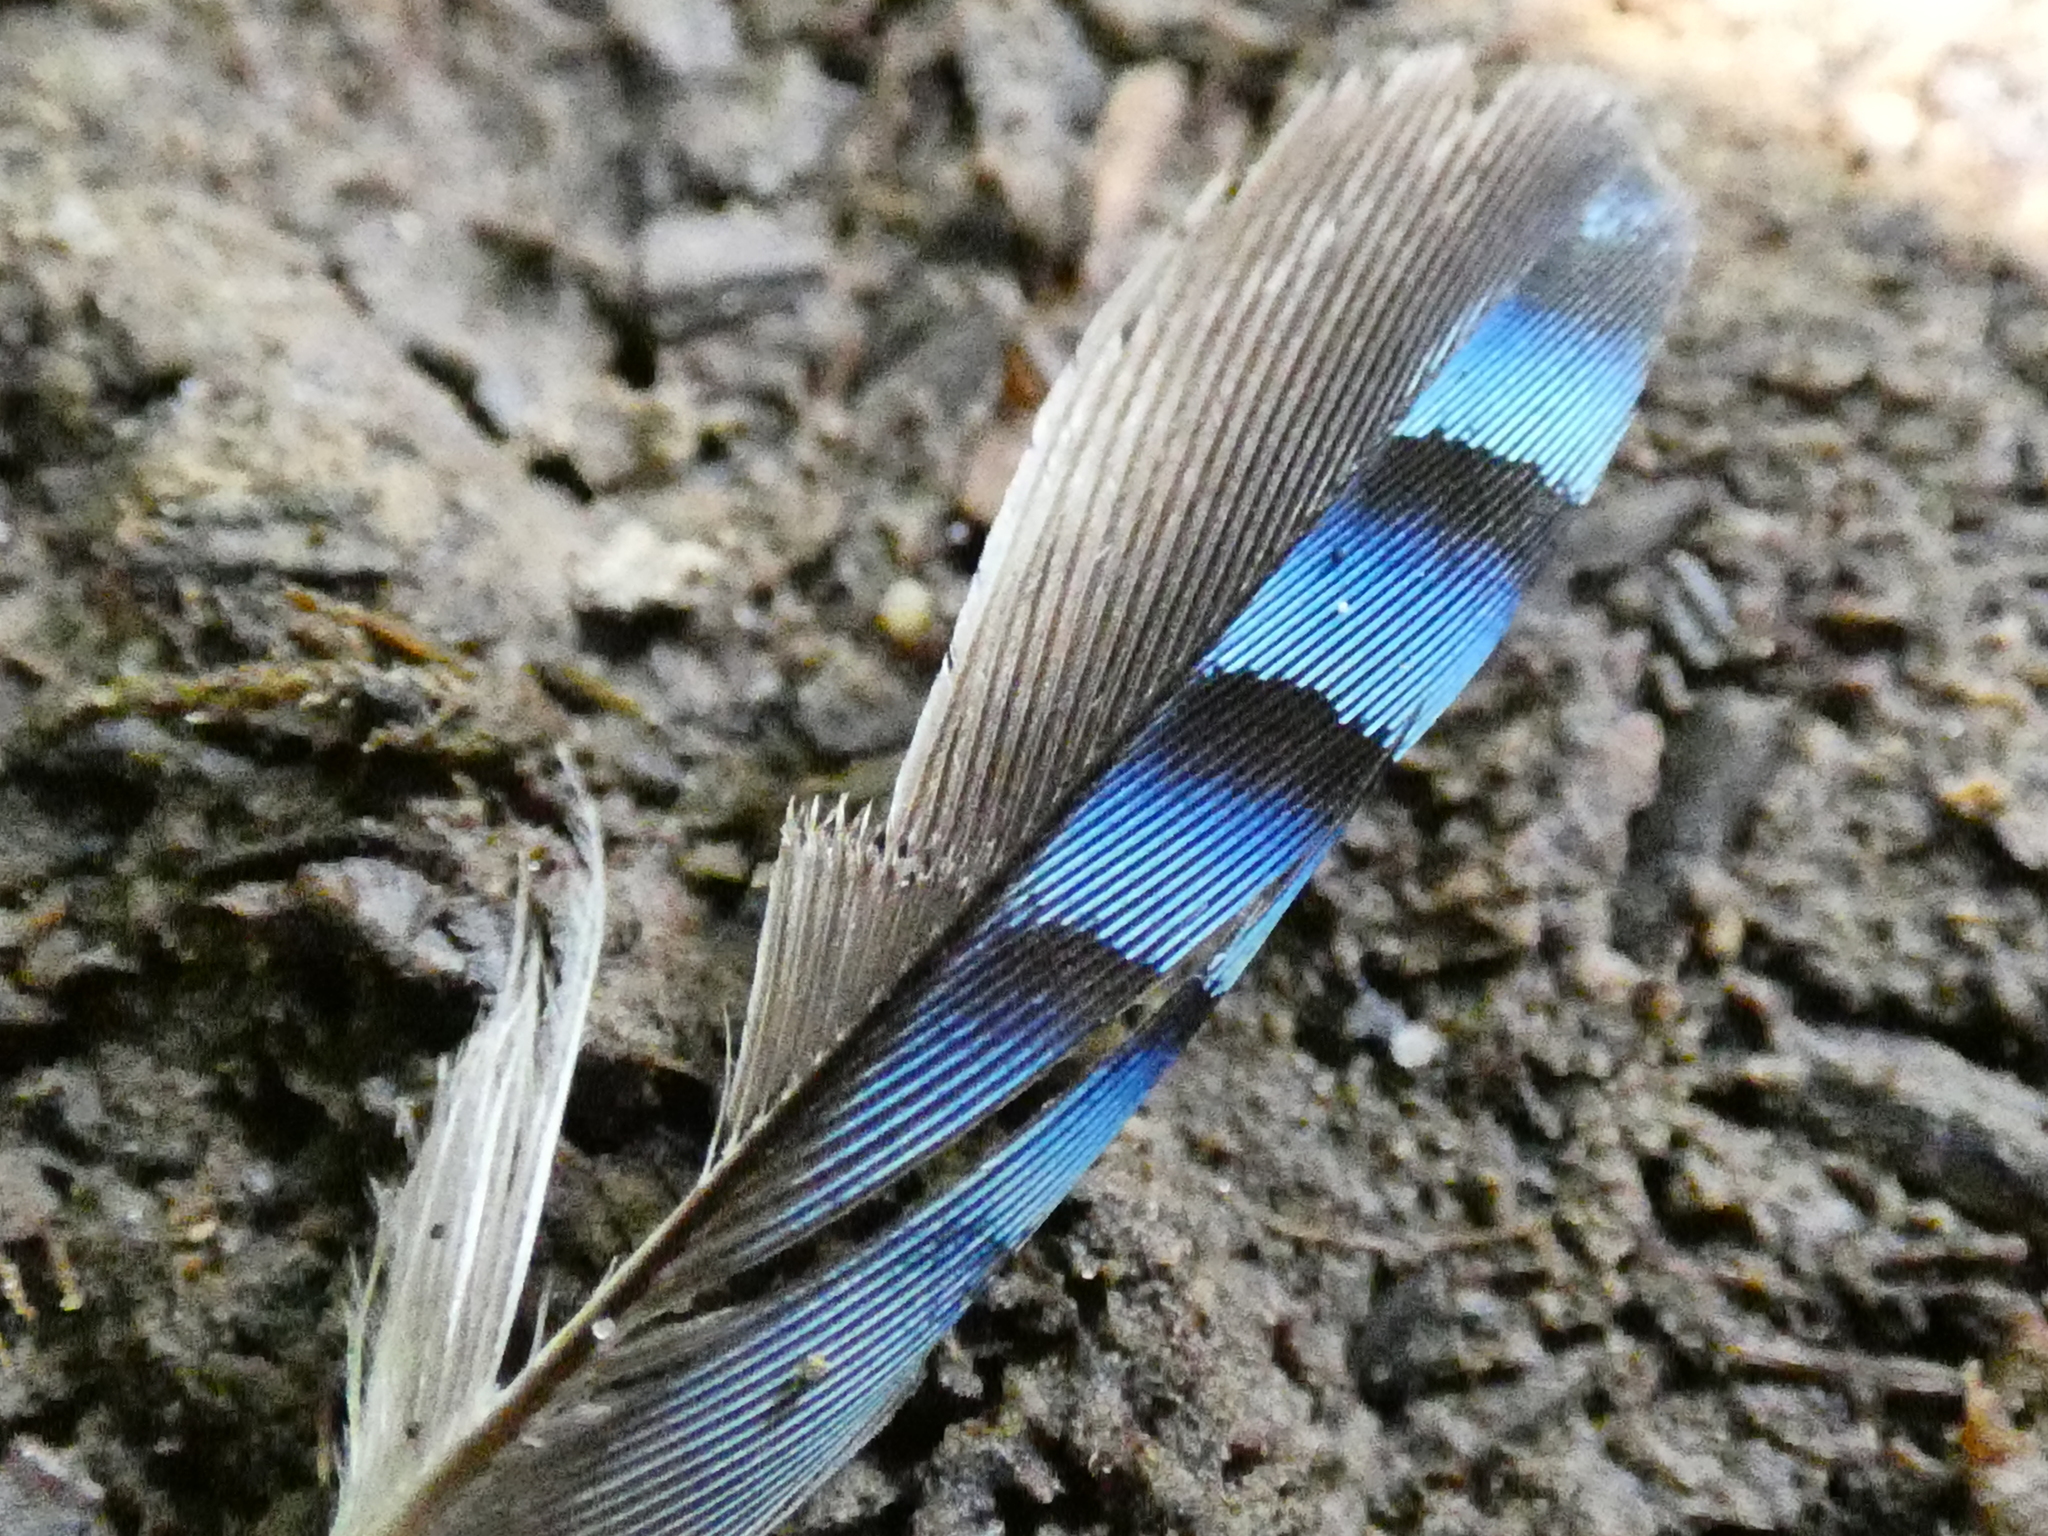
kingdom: Animalia
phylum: Chordata
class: Aves
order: Passeriformes
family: Corvidae
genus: Garrulus
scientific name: Garrulus glandarius
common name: Eurasian jay
